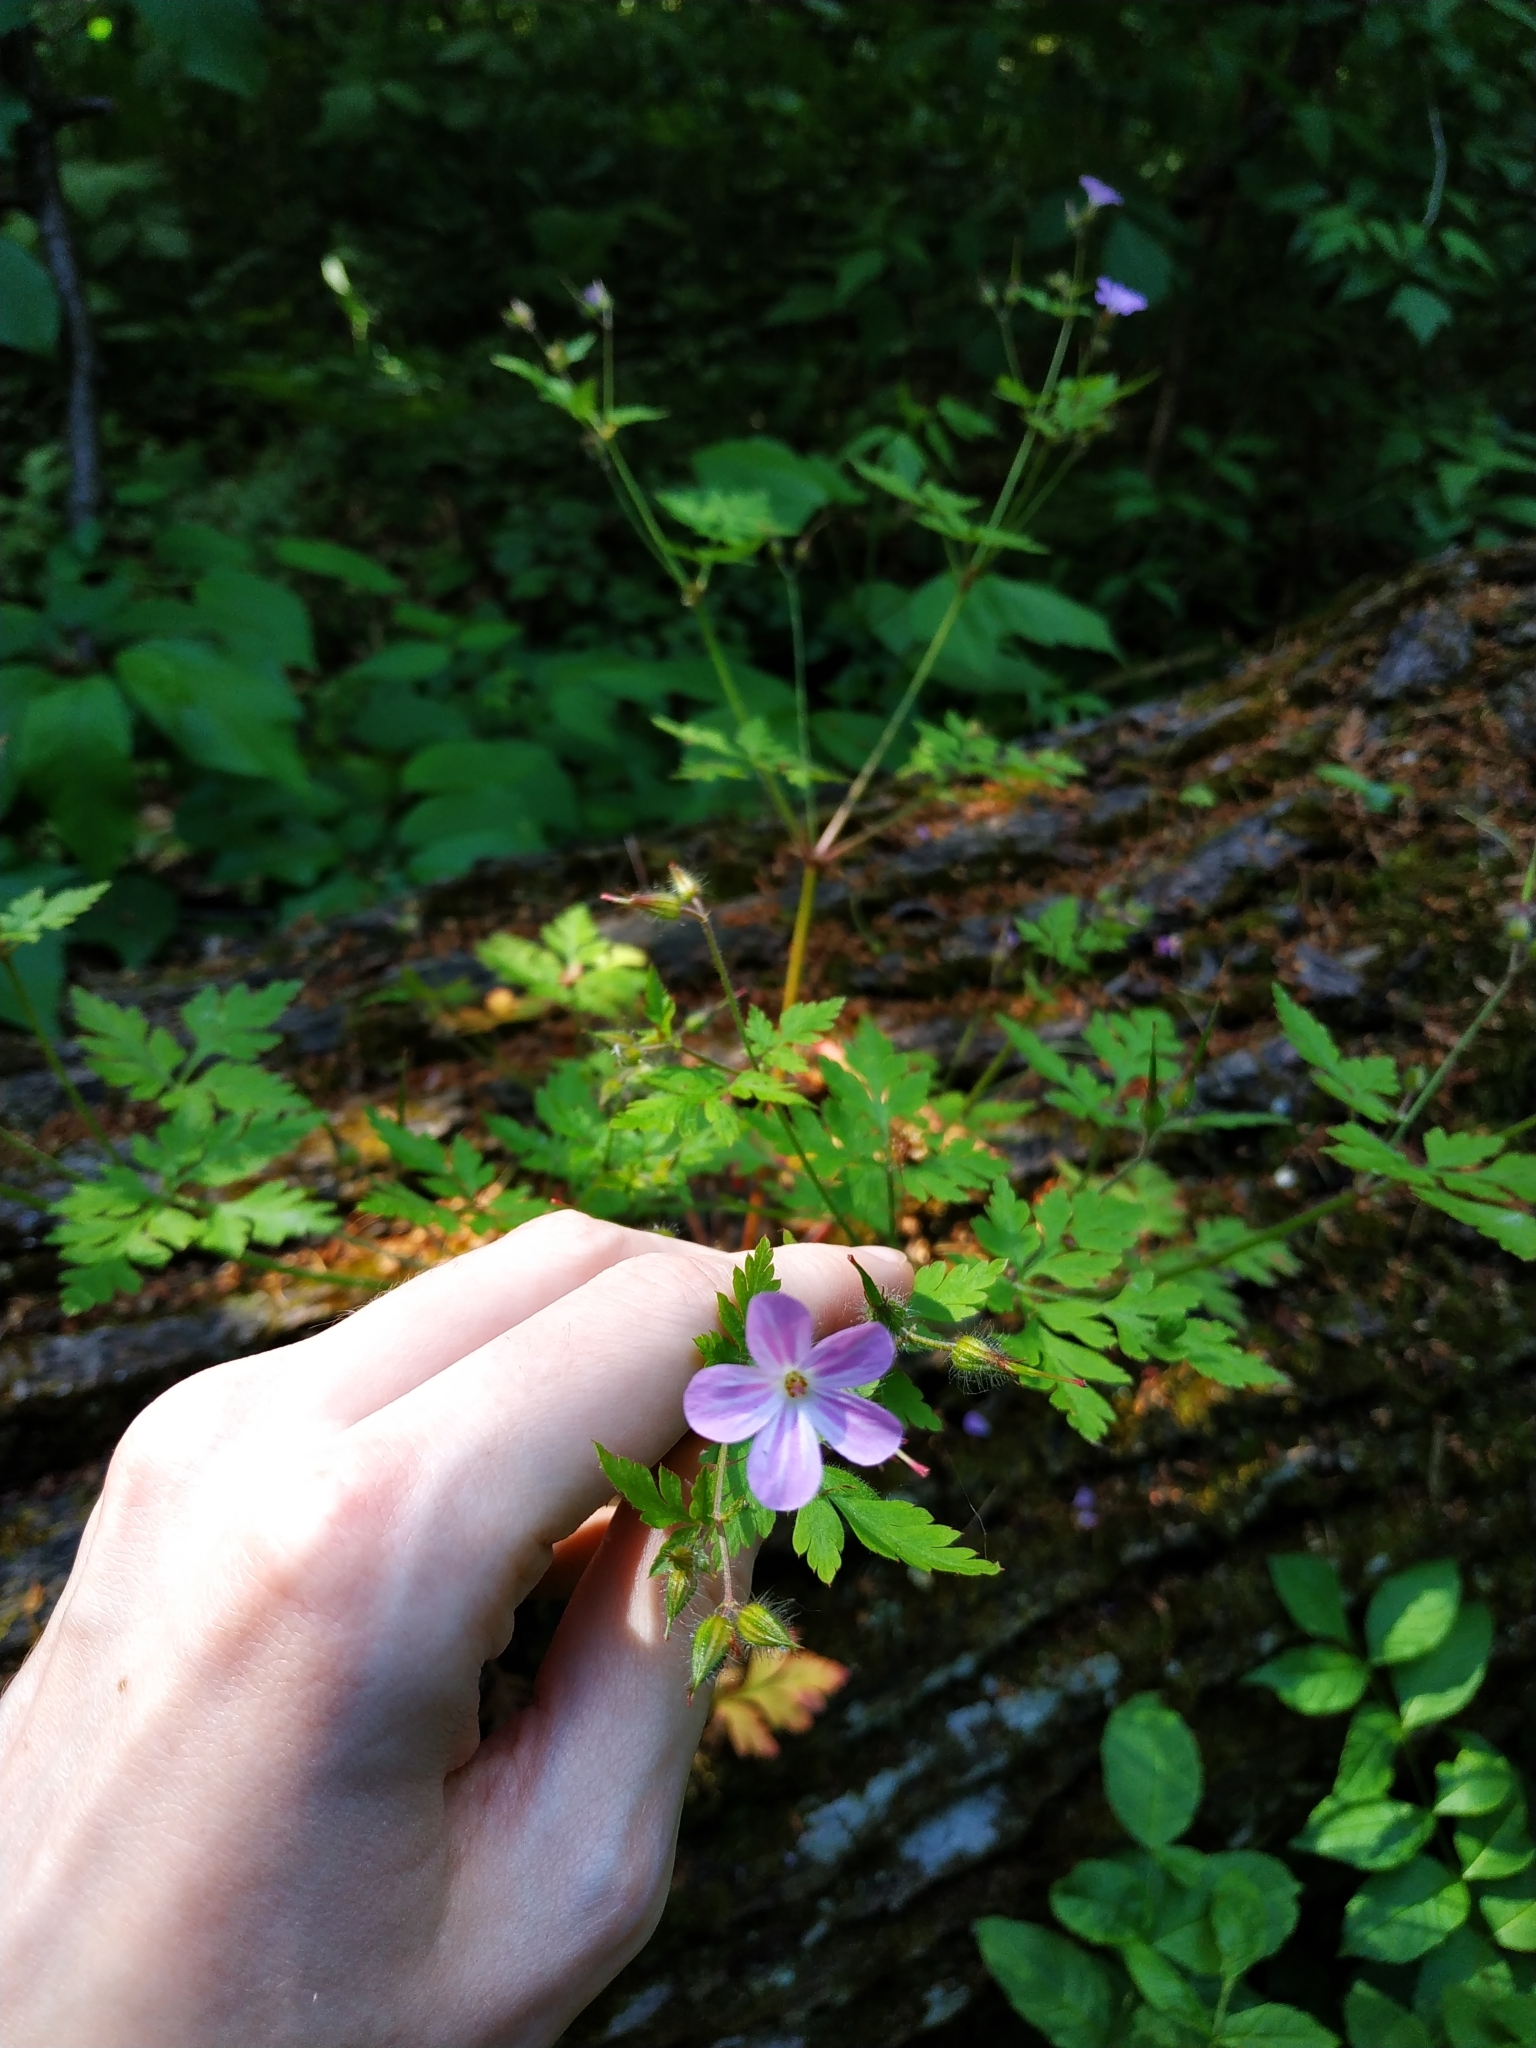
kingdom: Plantae
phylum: Tracheophyta
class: Magnoliopsida
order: Geraniales
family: Geraniaceae
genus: Geranium
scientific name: Geranium robertianum
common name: Herb-robert
